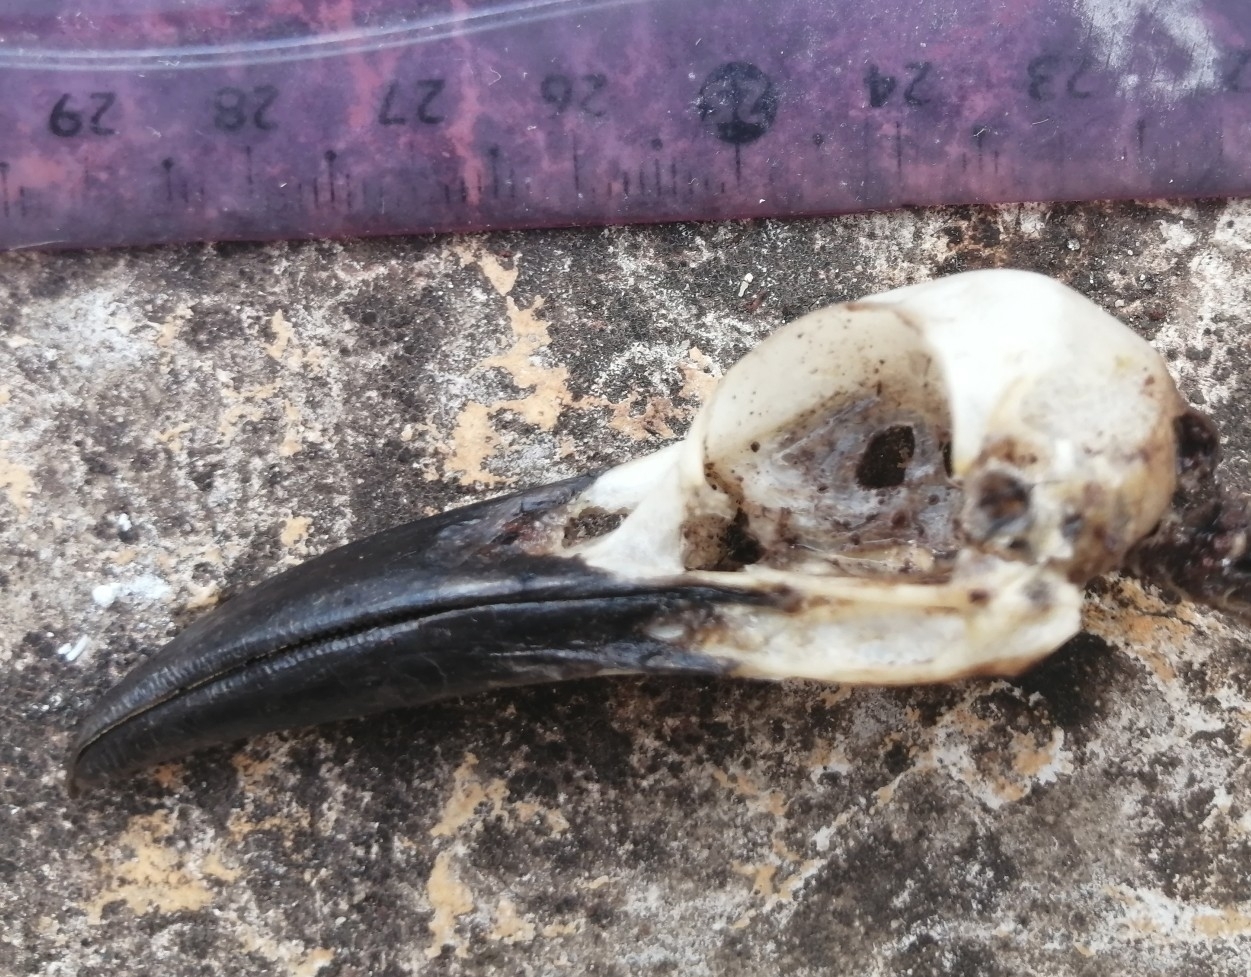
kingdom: Animalia
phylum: Chordata
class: Aves
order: Coraciiformes
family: Momotidae
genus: Eumomota
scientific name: Eumomota superciliosa
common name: Turquoise-browed motmot
